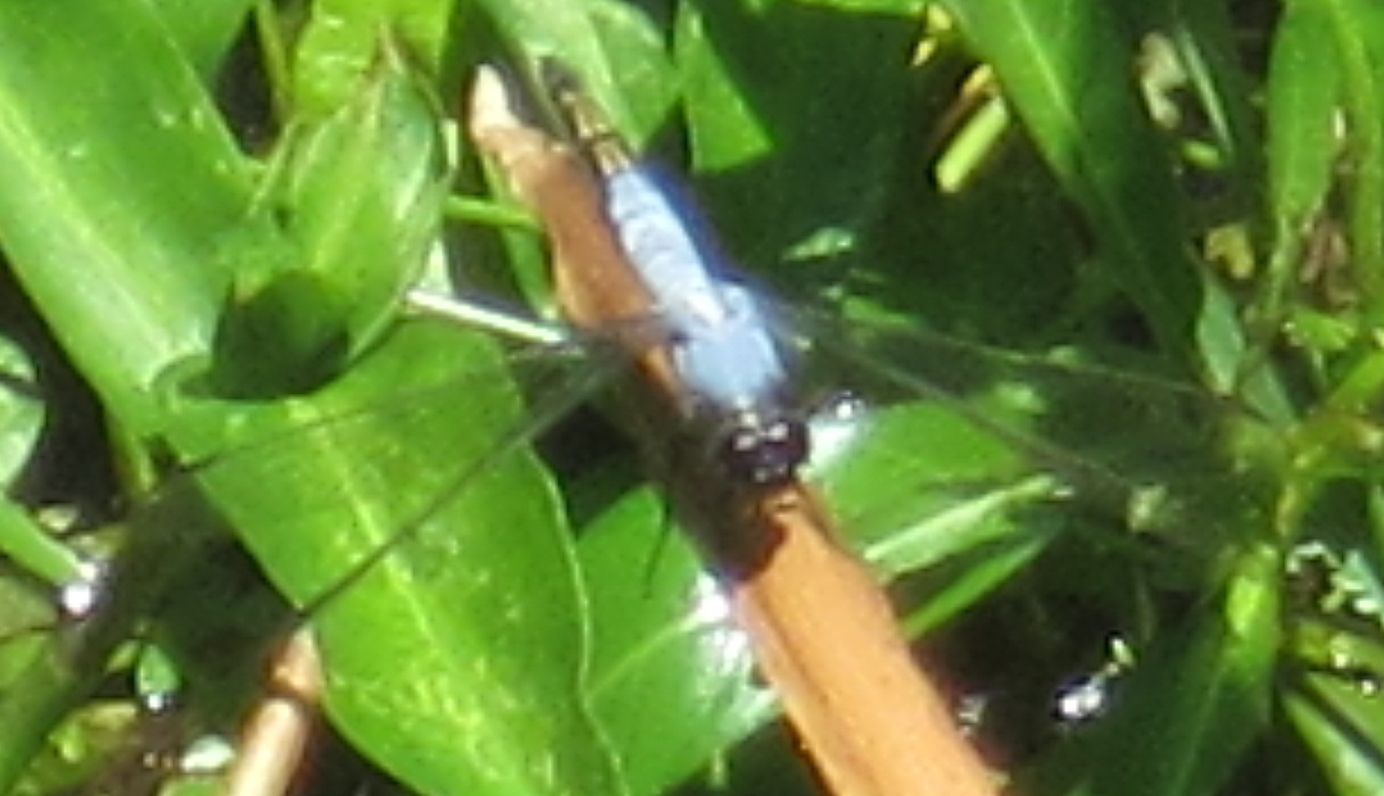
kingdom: Animalia
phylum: Arthropoda
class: Insecta
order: Odonata
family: Libellulidae
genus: Nesciothemis
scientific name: Nesciothemis farinosa
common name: Eastern blacktail
